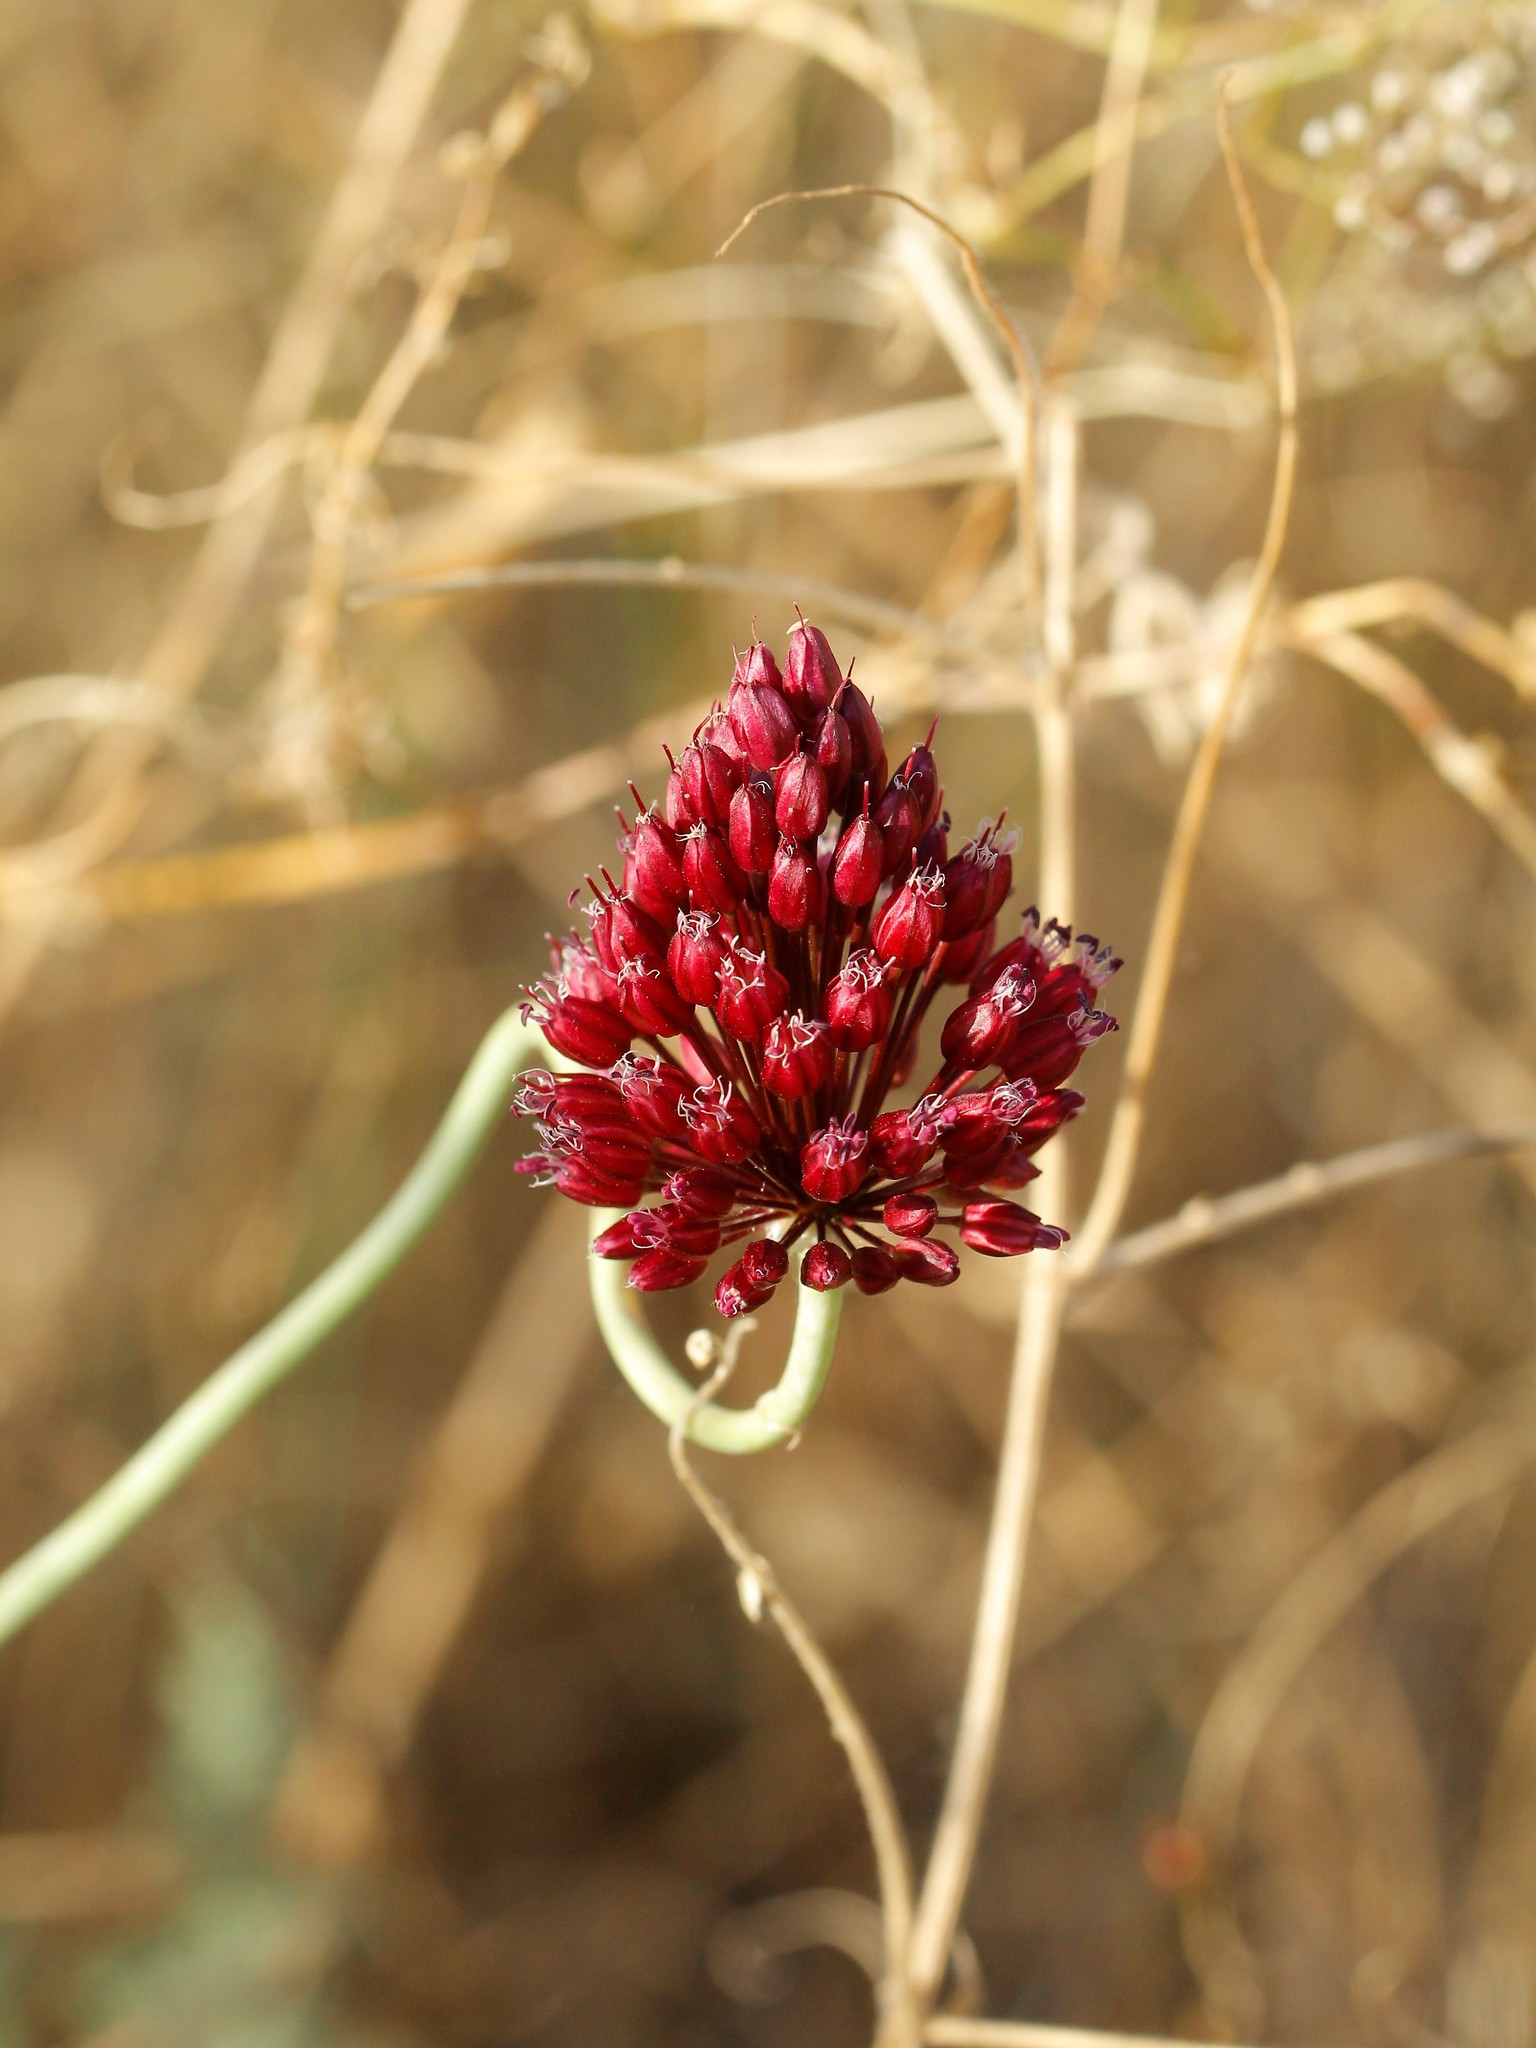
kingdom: Plantae
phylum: Tracheophyta
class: Liliopsida
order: Asparagales
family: Amaryllidaceae
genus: Allium
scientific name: Allium regelianum
